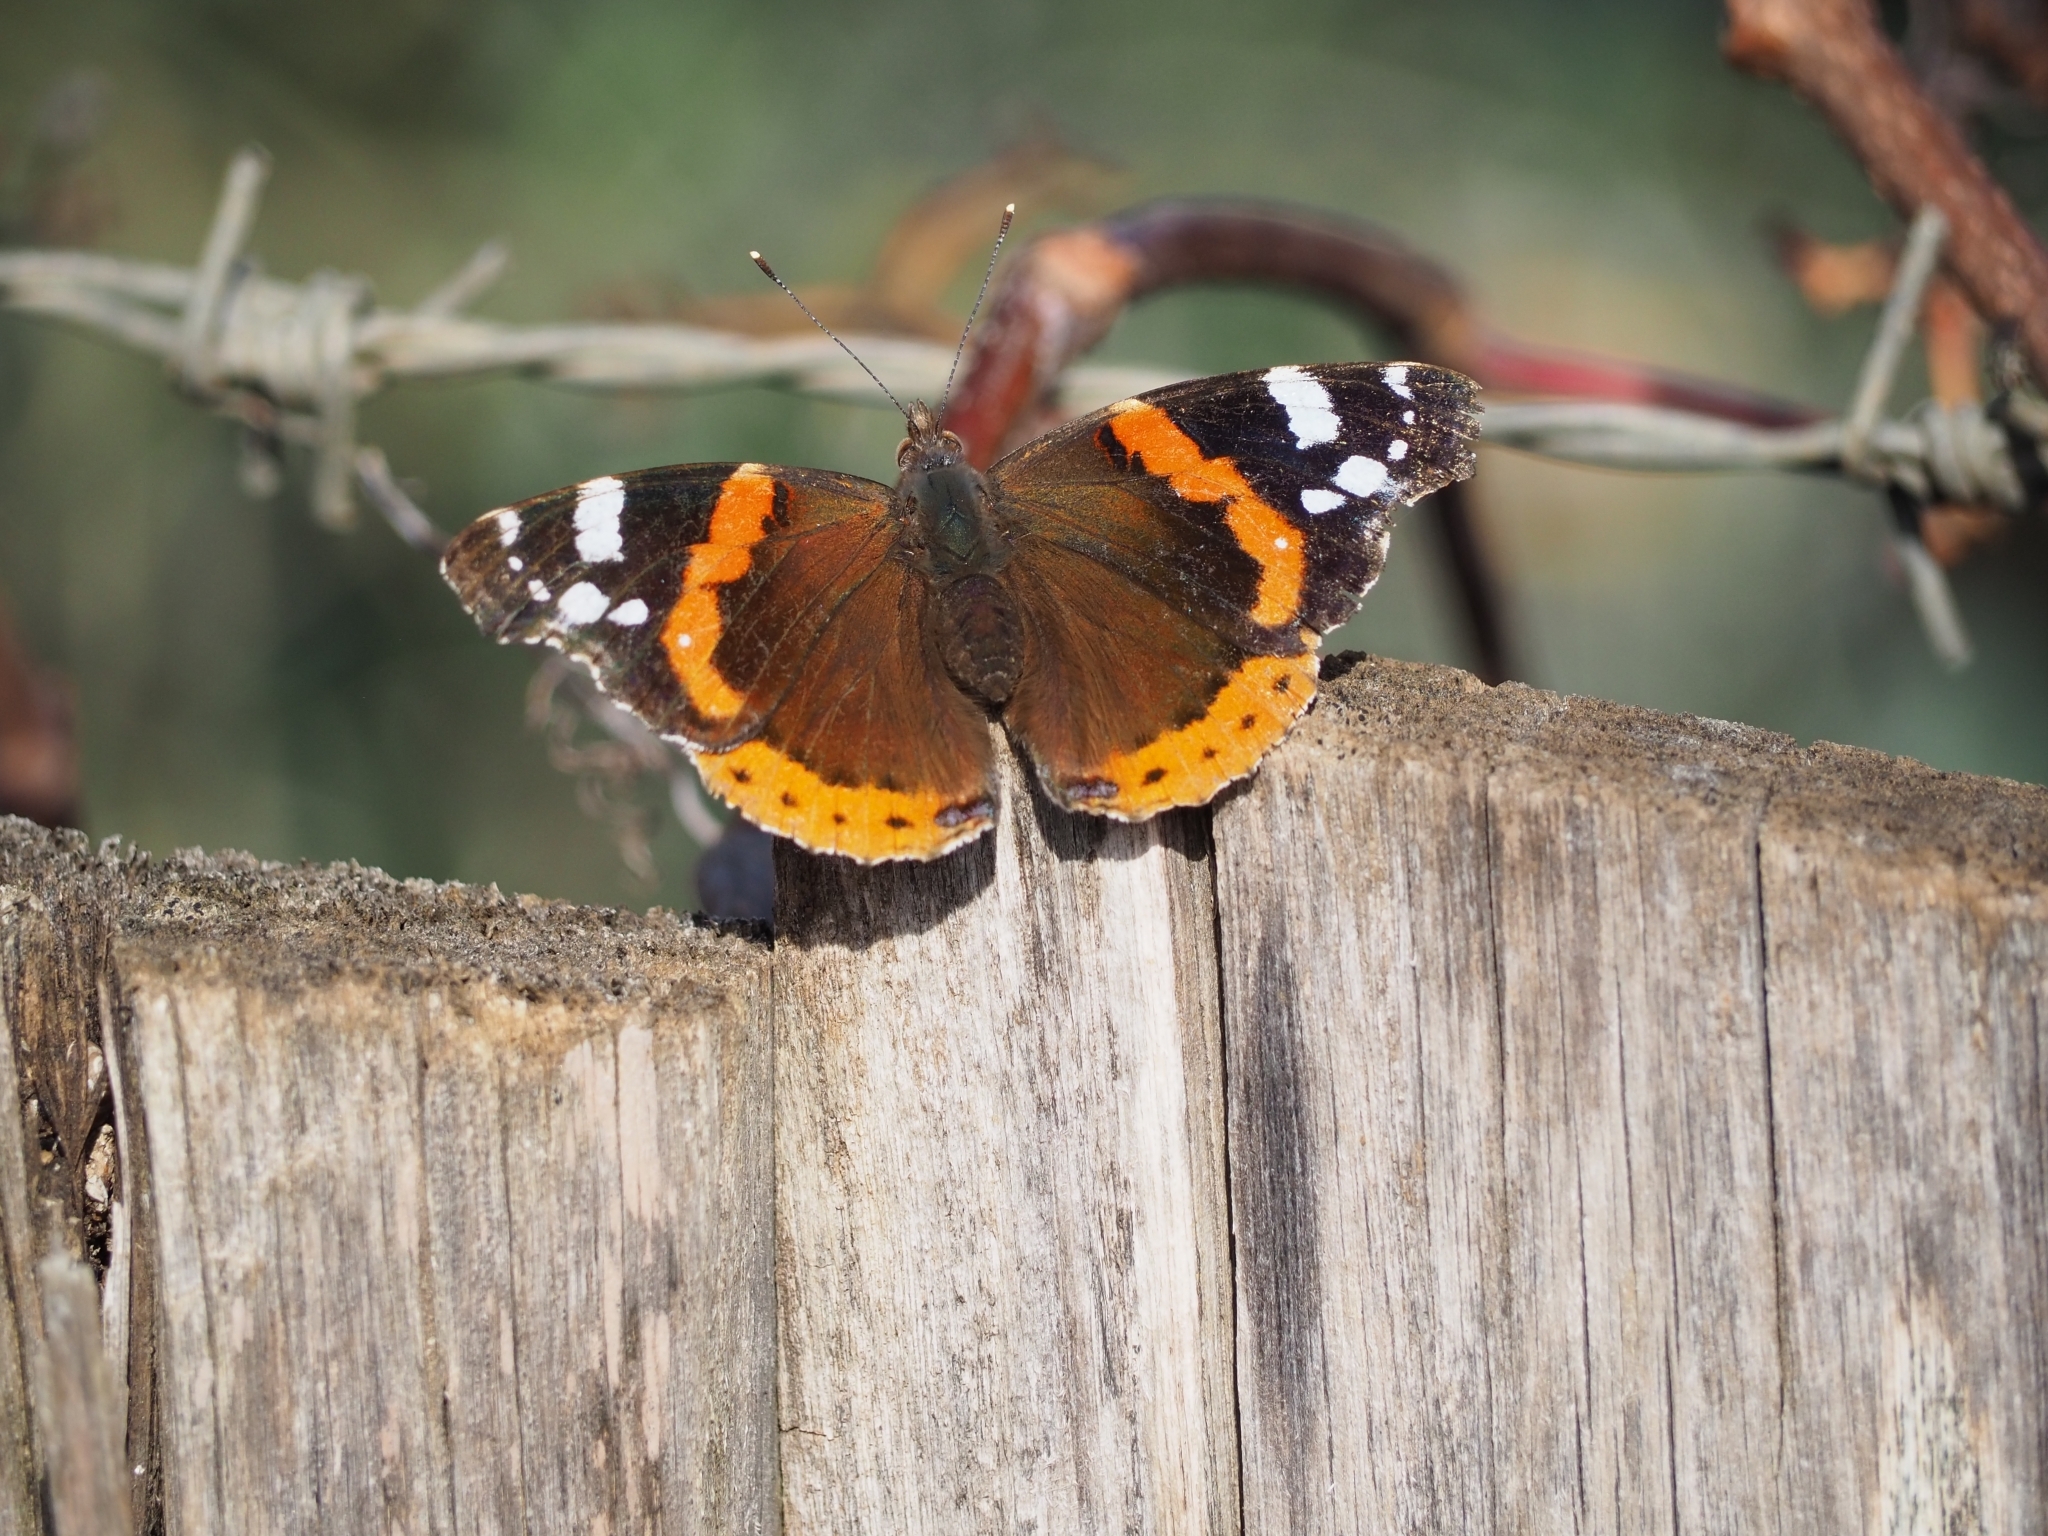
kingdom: Animalia
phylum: Arthropoda
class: Insecta
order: Lepidoptera
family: Nymphalidae
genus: Vanessa
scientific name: Vanessa atalanta
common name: Red admiral
